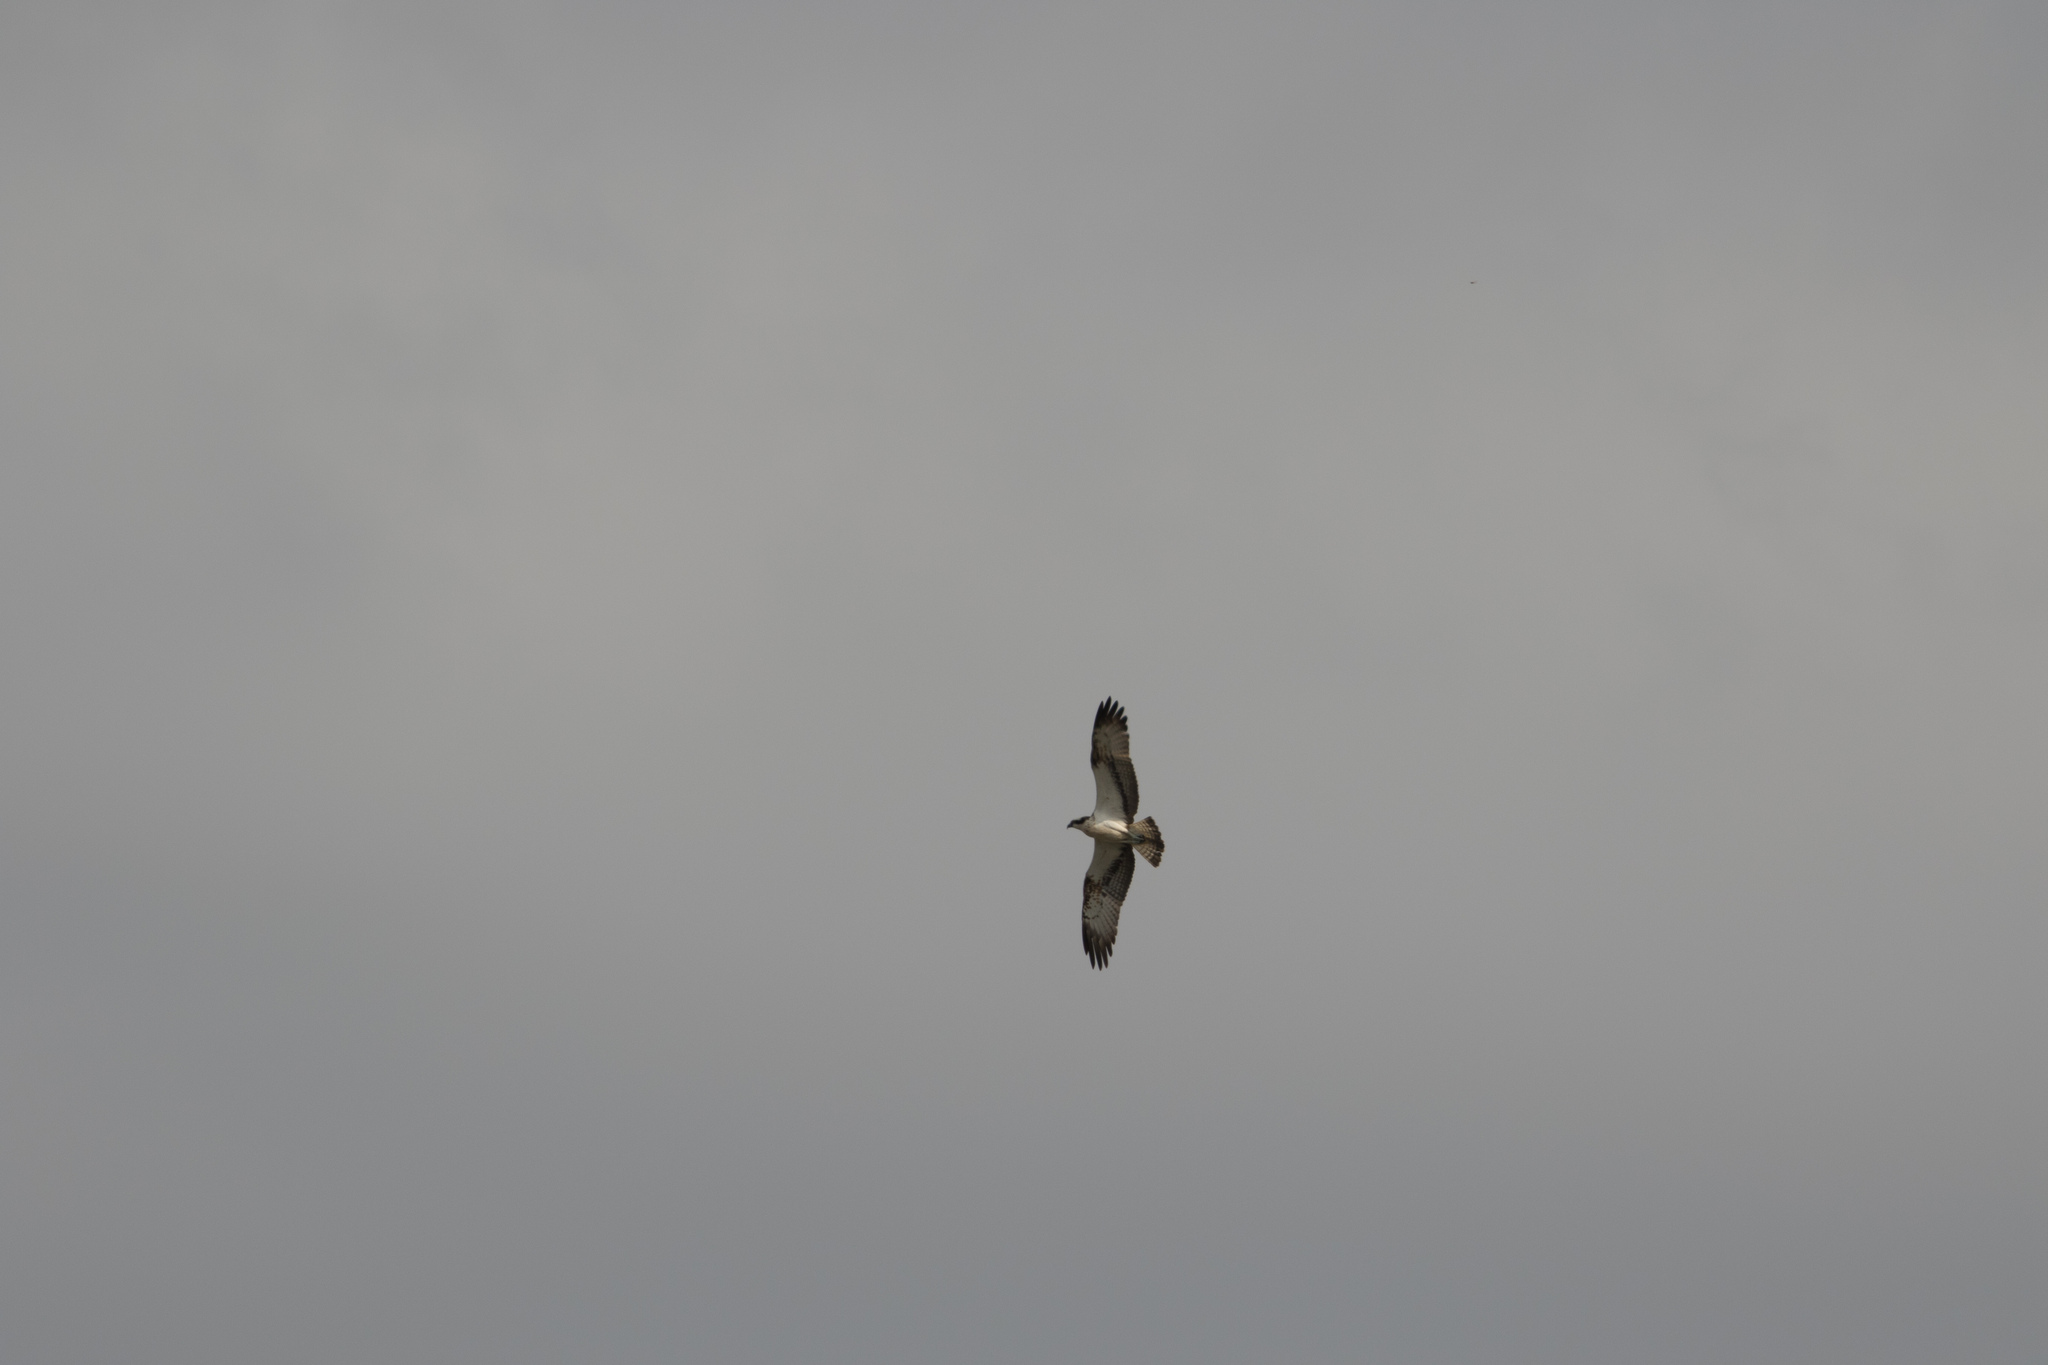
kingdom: Animalia
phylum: Chordata
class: Aves
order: Accipitriformes
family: Pandionidae
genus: Pandion
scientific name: Pandion haliaetus
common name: Osprey
